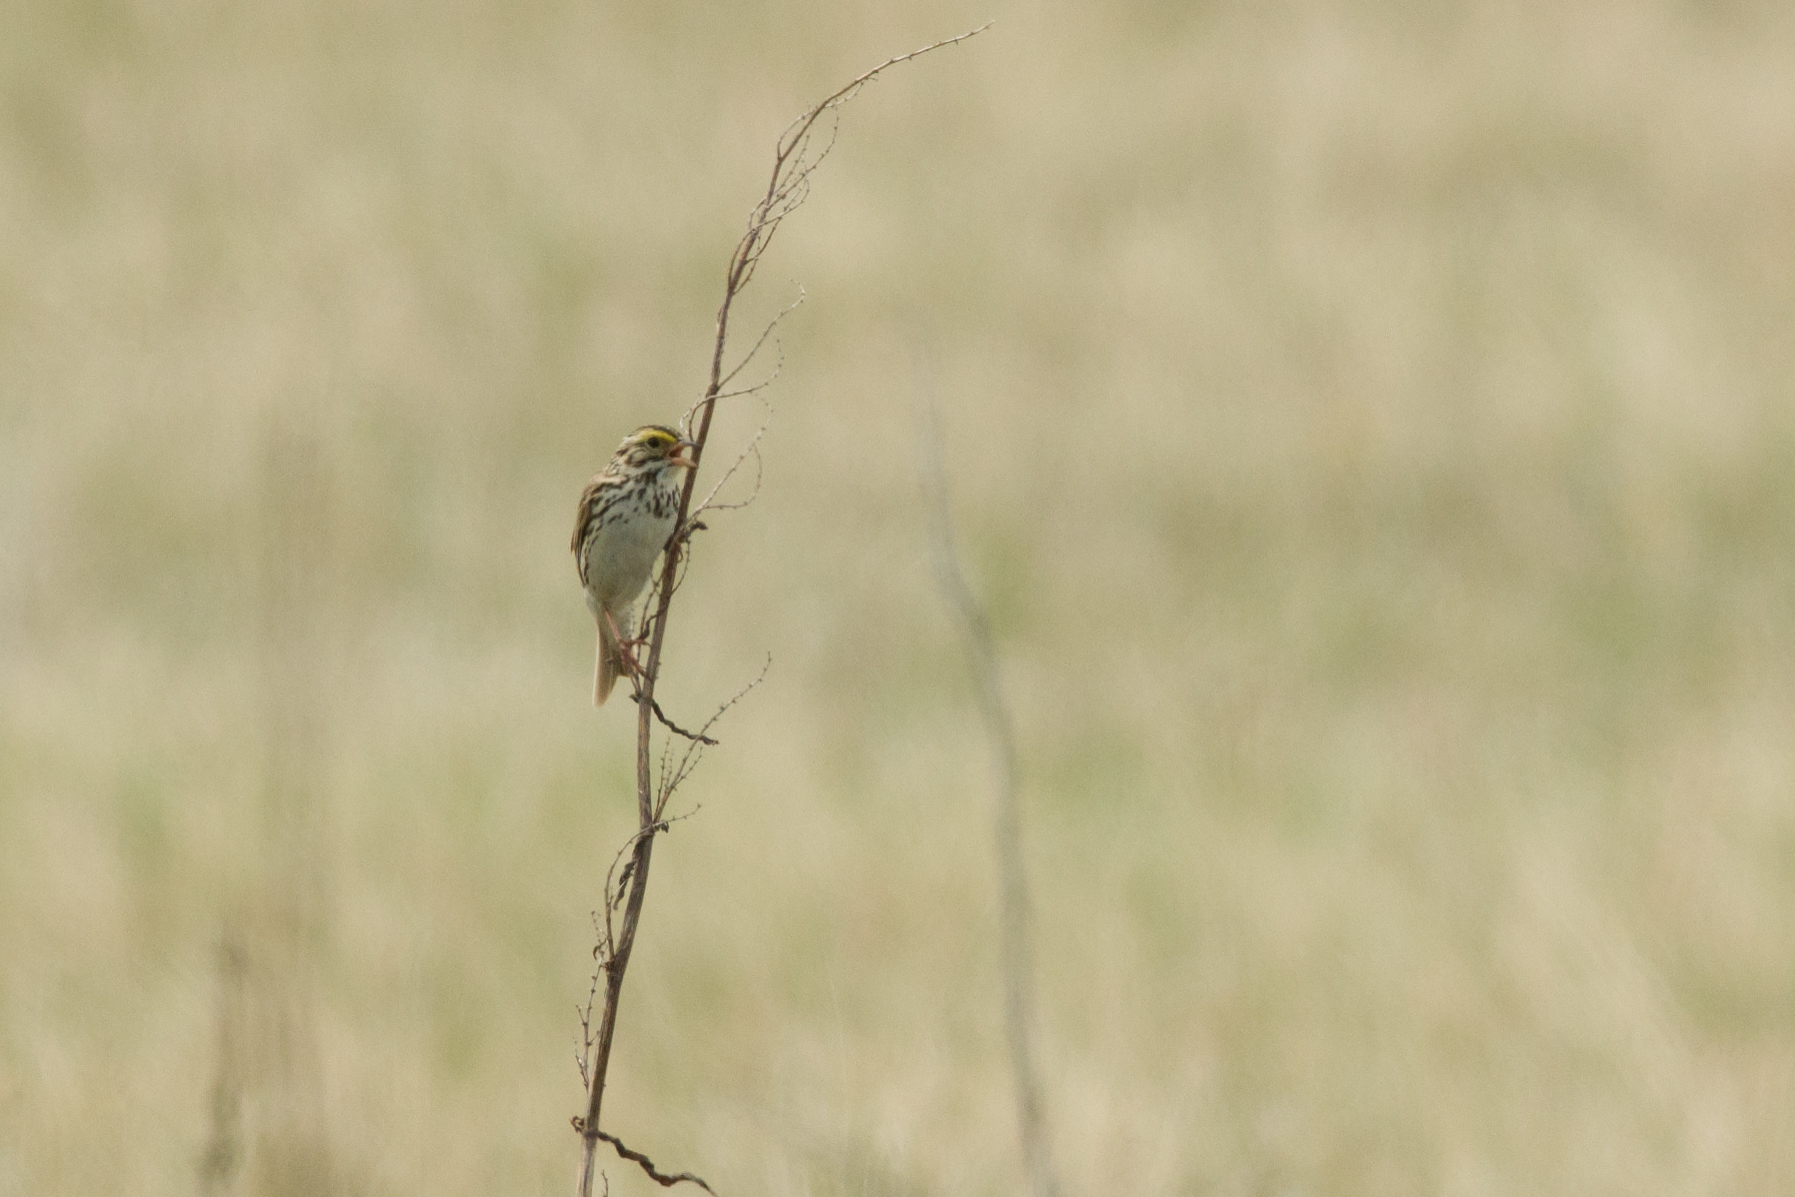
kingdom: Animalia
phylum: Chordata
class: Aves
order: Passeriformes
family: Passerellidae
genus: Passerculus
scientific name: Passerculus sandwichensis
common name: Savannah sparrow
